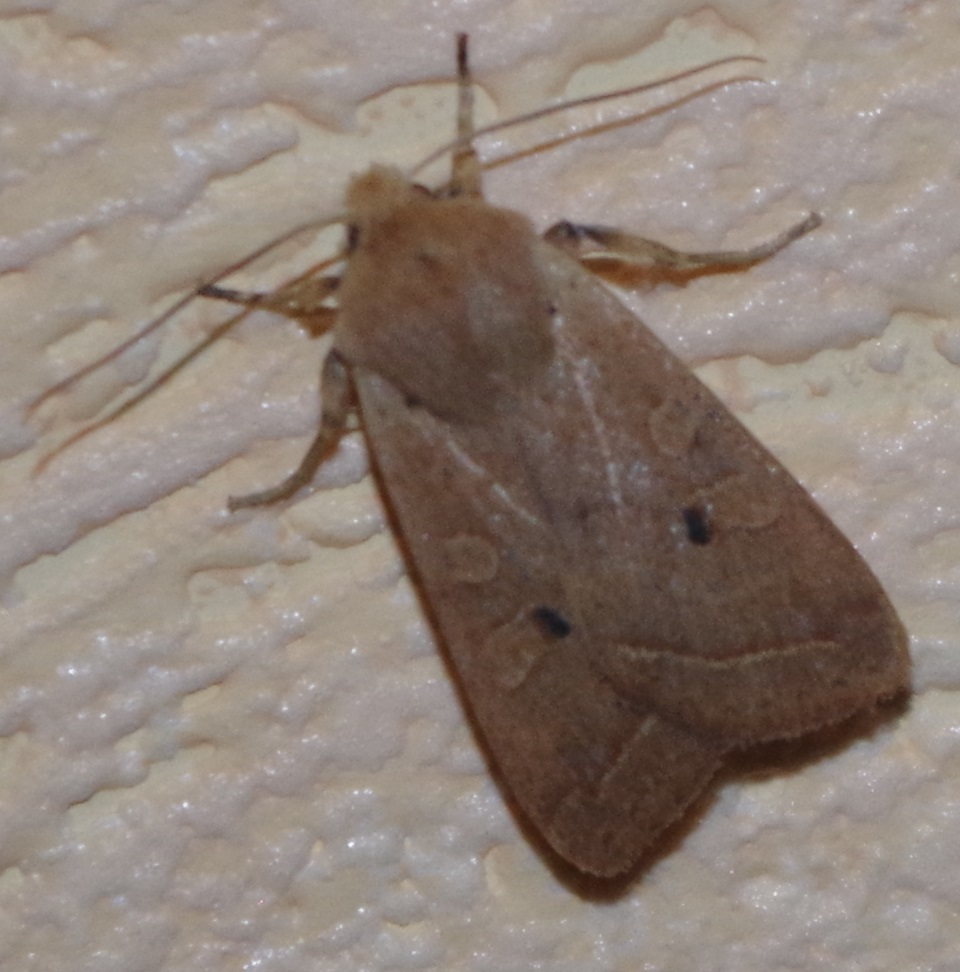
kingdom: Animalia
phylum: Arthropoda
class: Insecta
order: Lepidoptera
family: Noctuidae
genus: Agrochola
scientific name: Agrochola macilenta
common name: Yellow-line quaker
